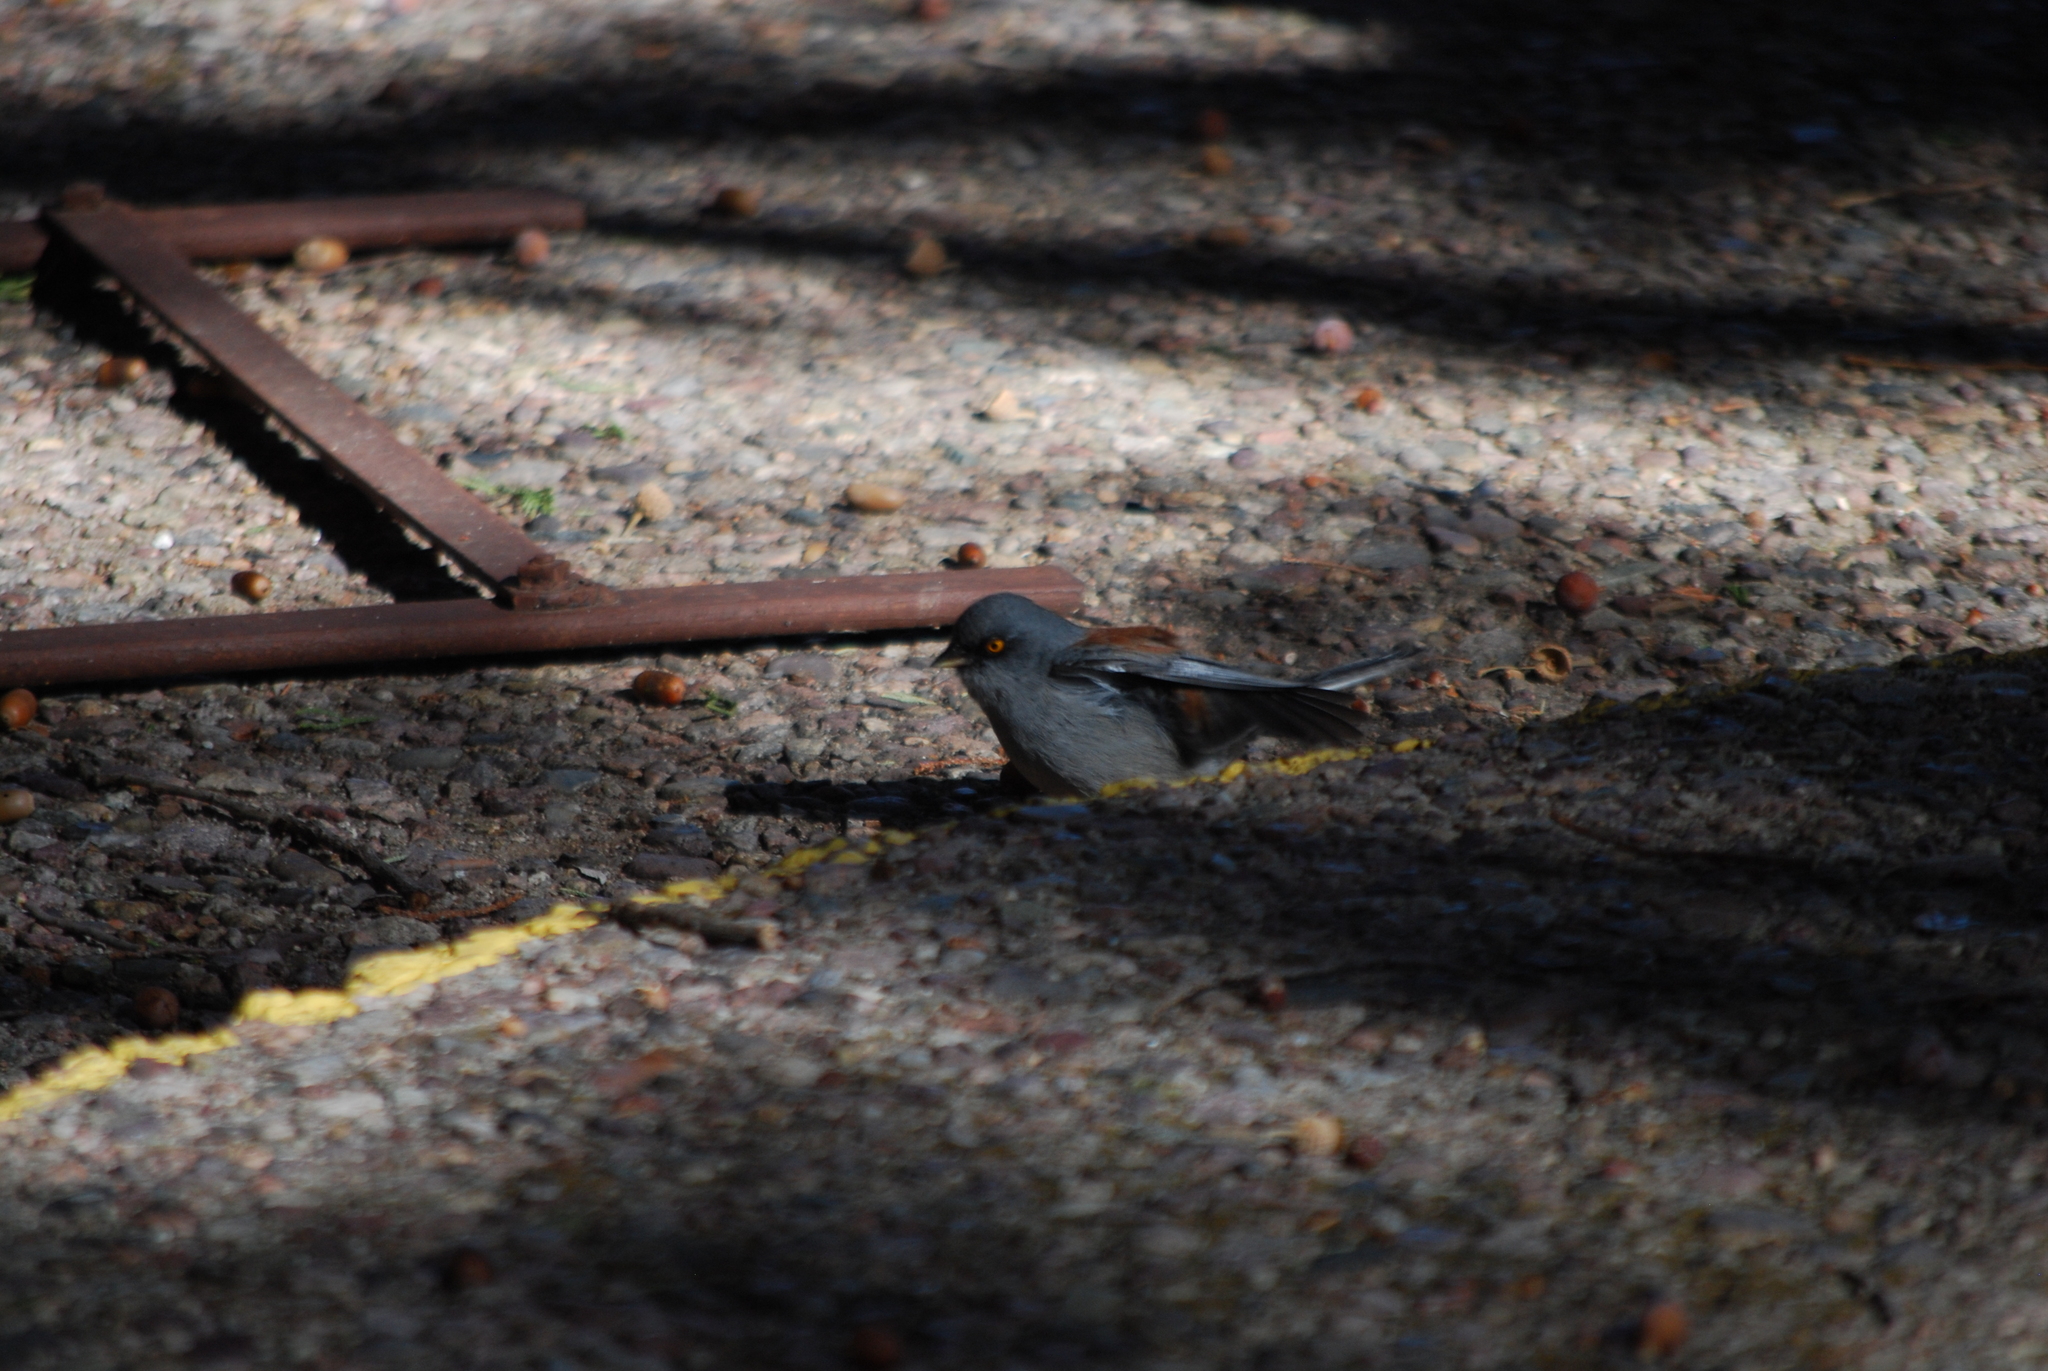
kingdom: Animalia
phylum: Chordata
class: Aves
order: Passeriformes
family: Passerellidae
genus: Junco
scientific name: Junco phaeonotus
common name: Yellow-eyed junco
